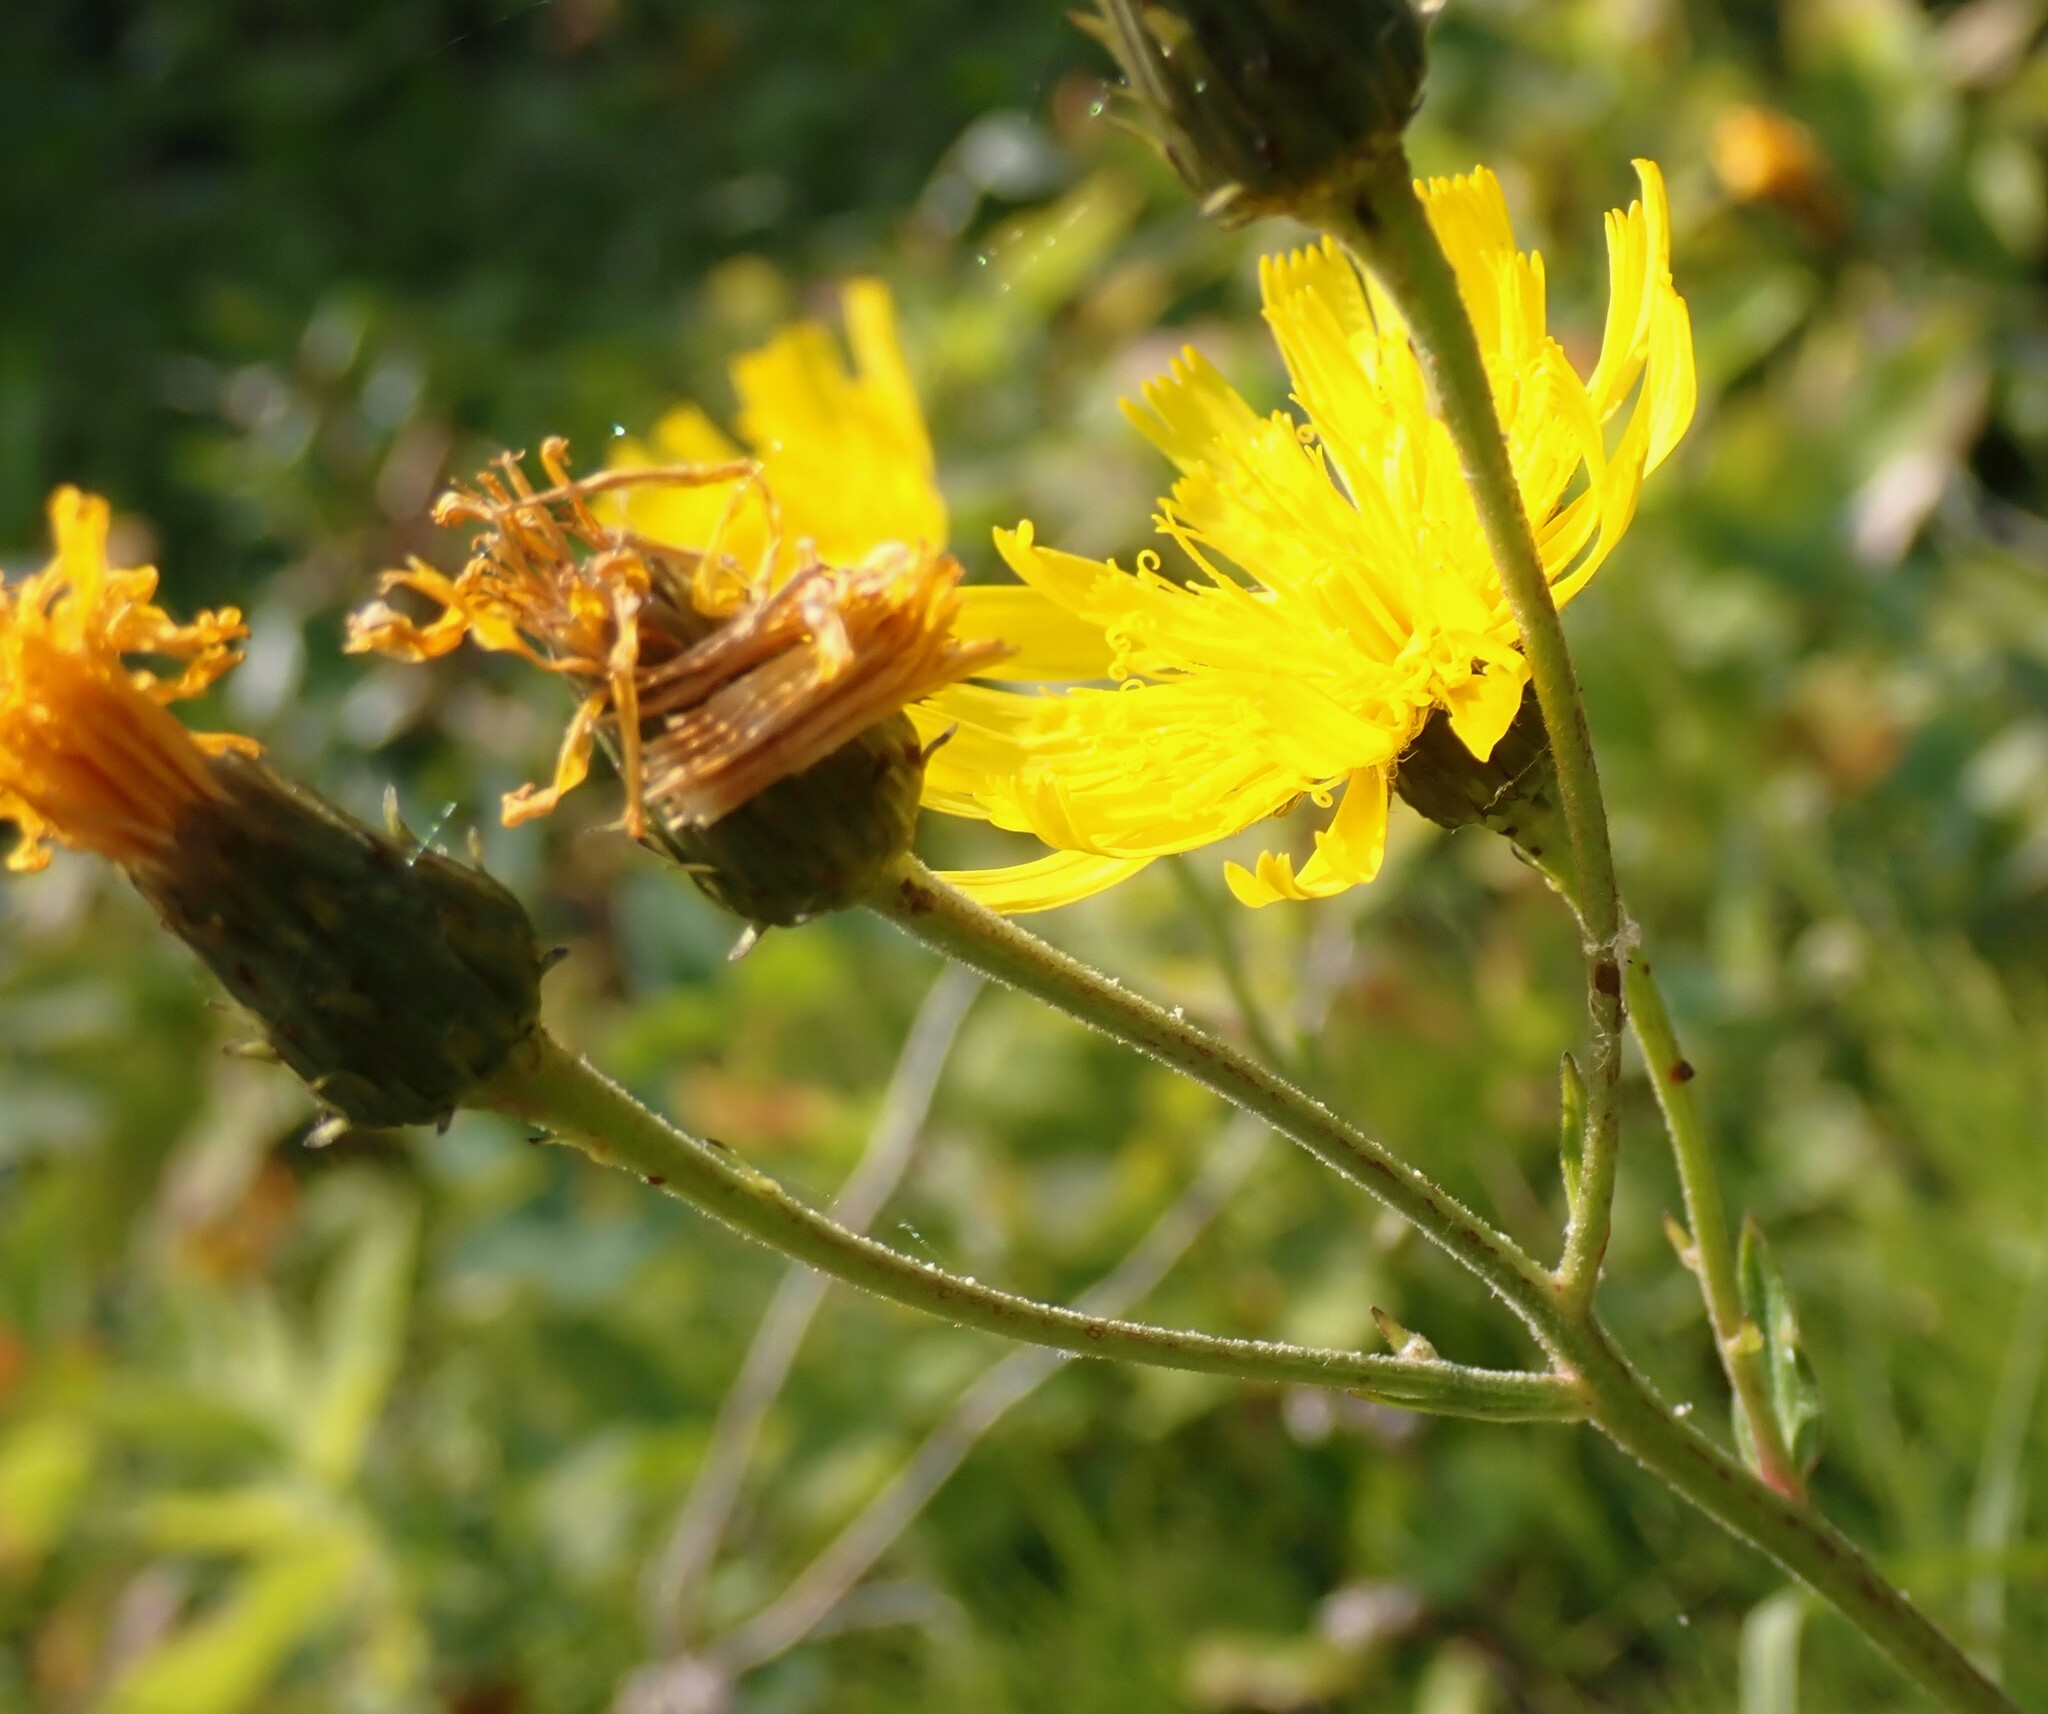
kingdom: Plantae
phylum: Tracheophyta
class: Magnoliopsida
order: Asterales
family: Asteraceae
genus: Hieracium
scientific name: Hieracium umbellatum
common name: Northern hawkweed
